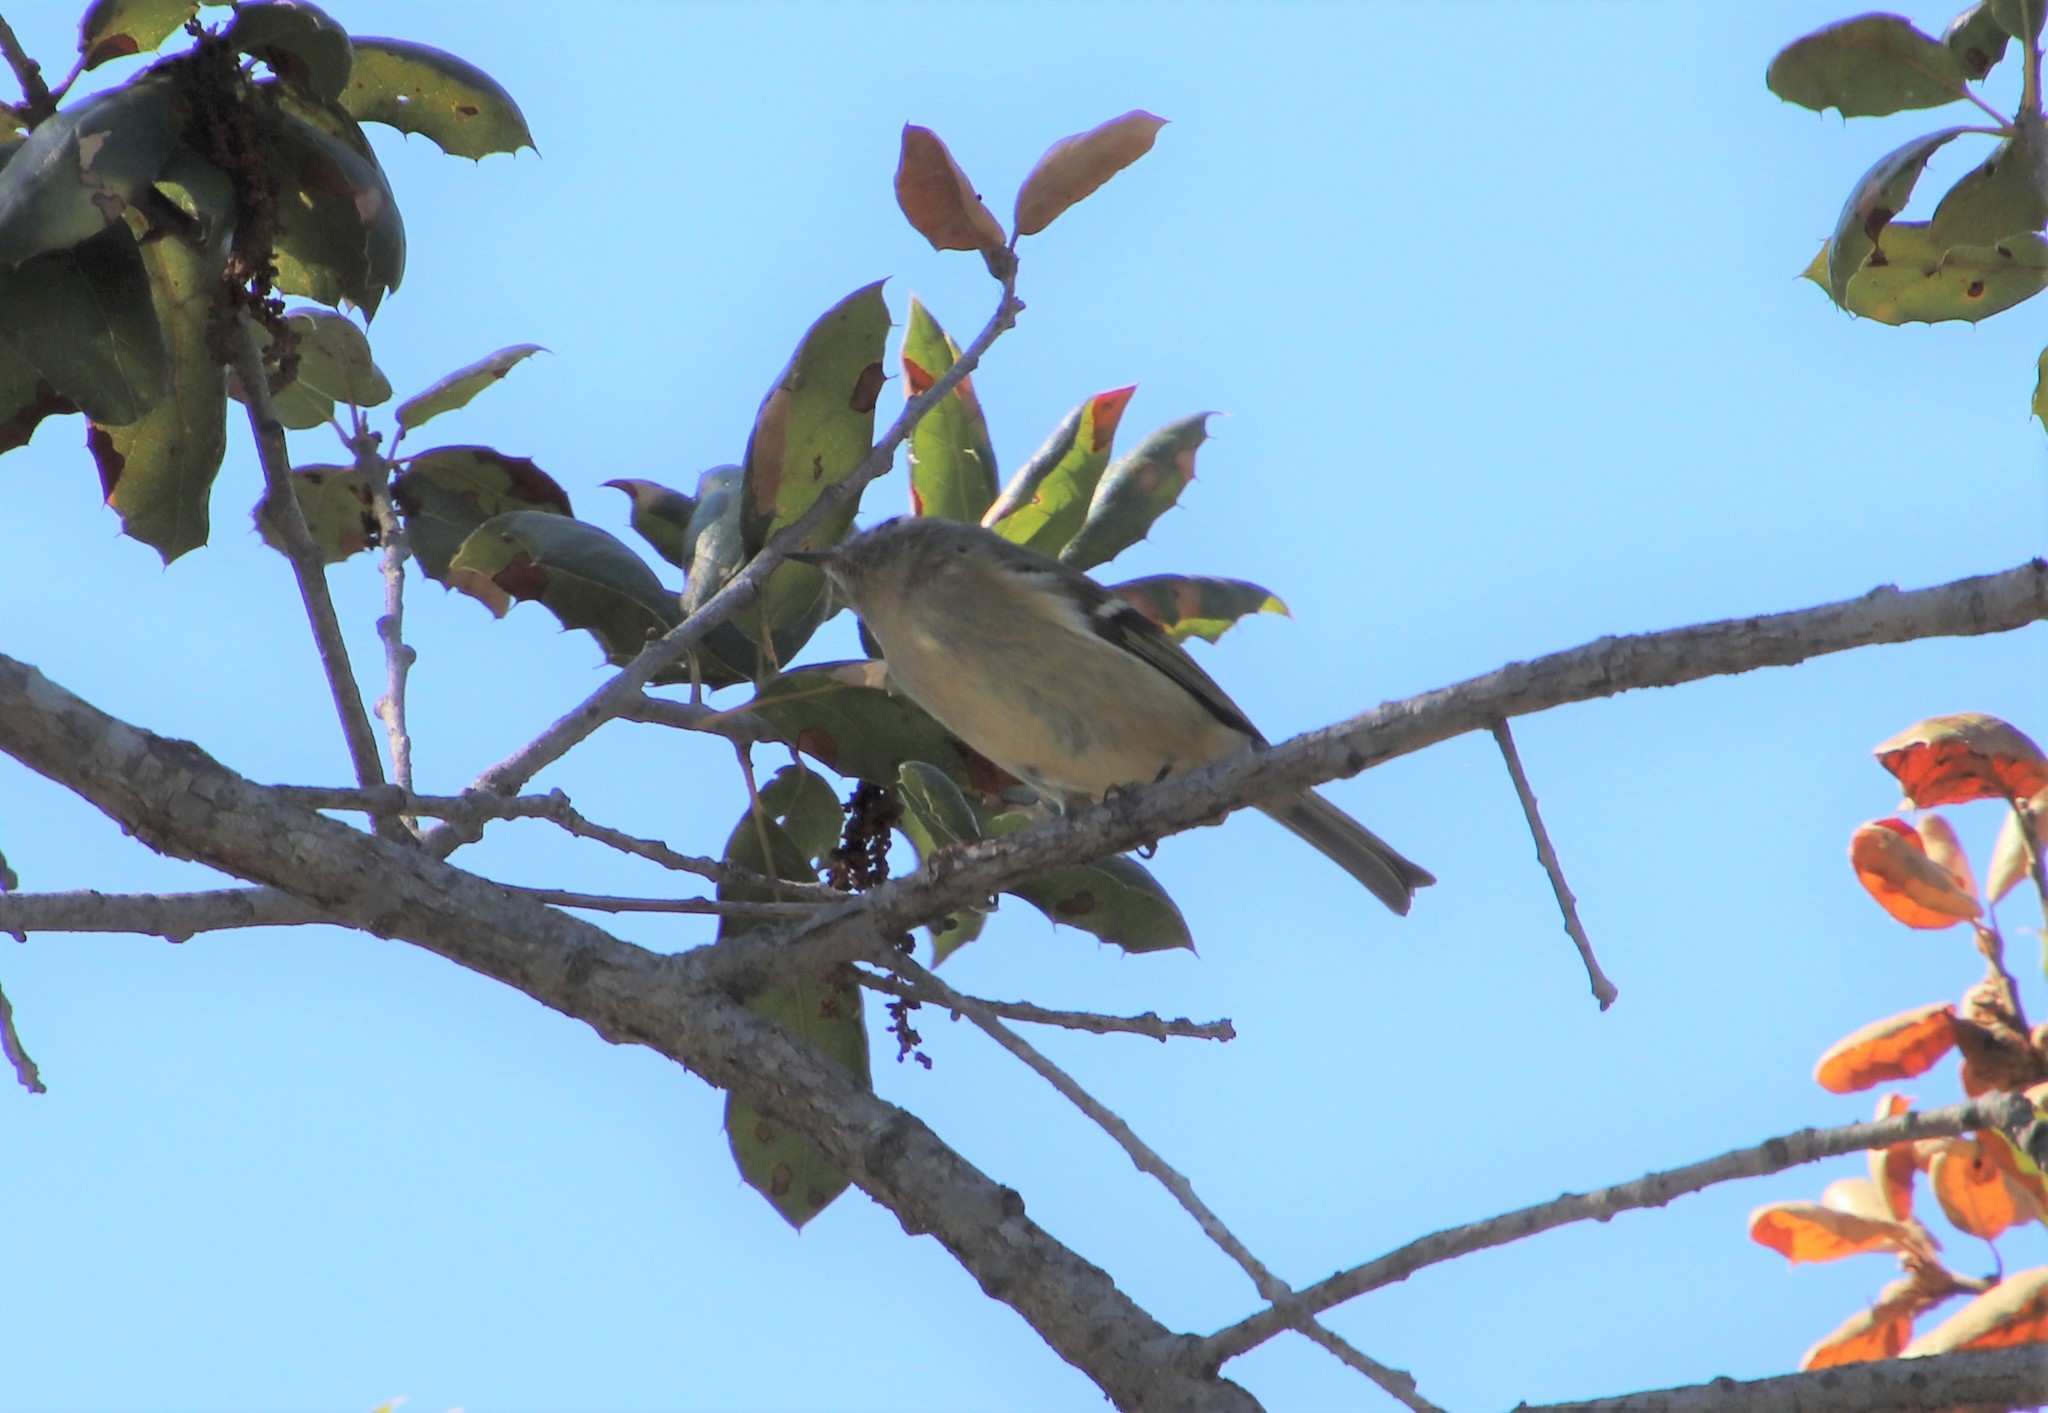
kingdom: Animalia
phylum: Chordata
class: Aves
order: Passeriformes
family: Regulidae
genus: Regulus
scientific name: Regulus calendula
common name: Ruby-crowned kinglet
